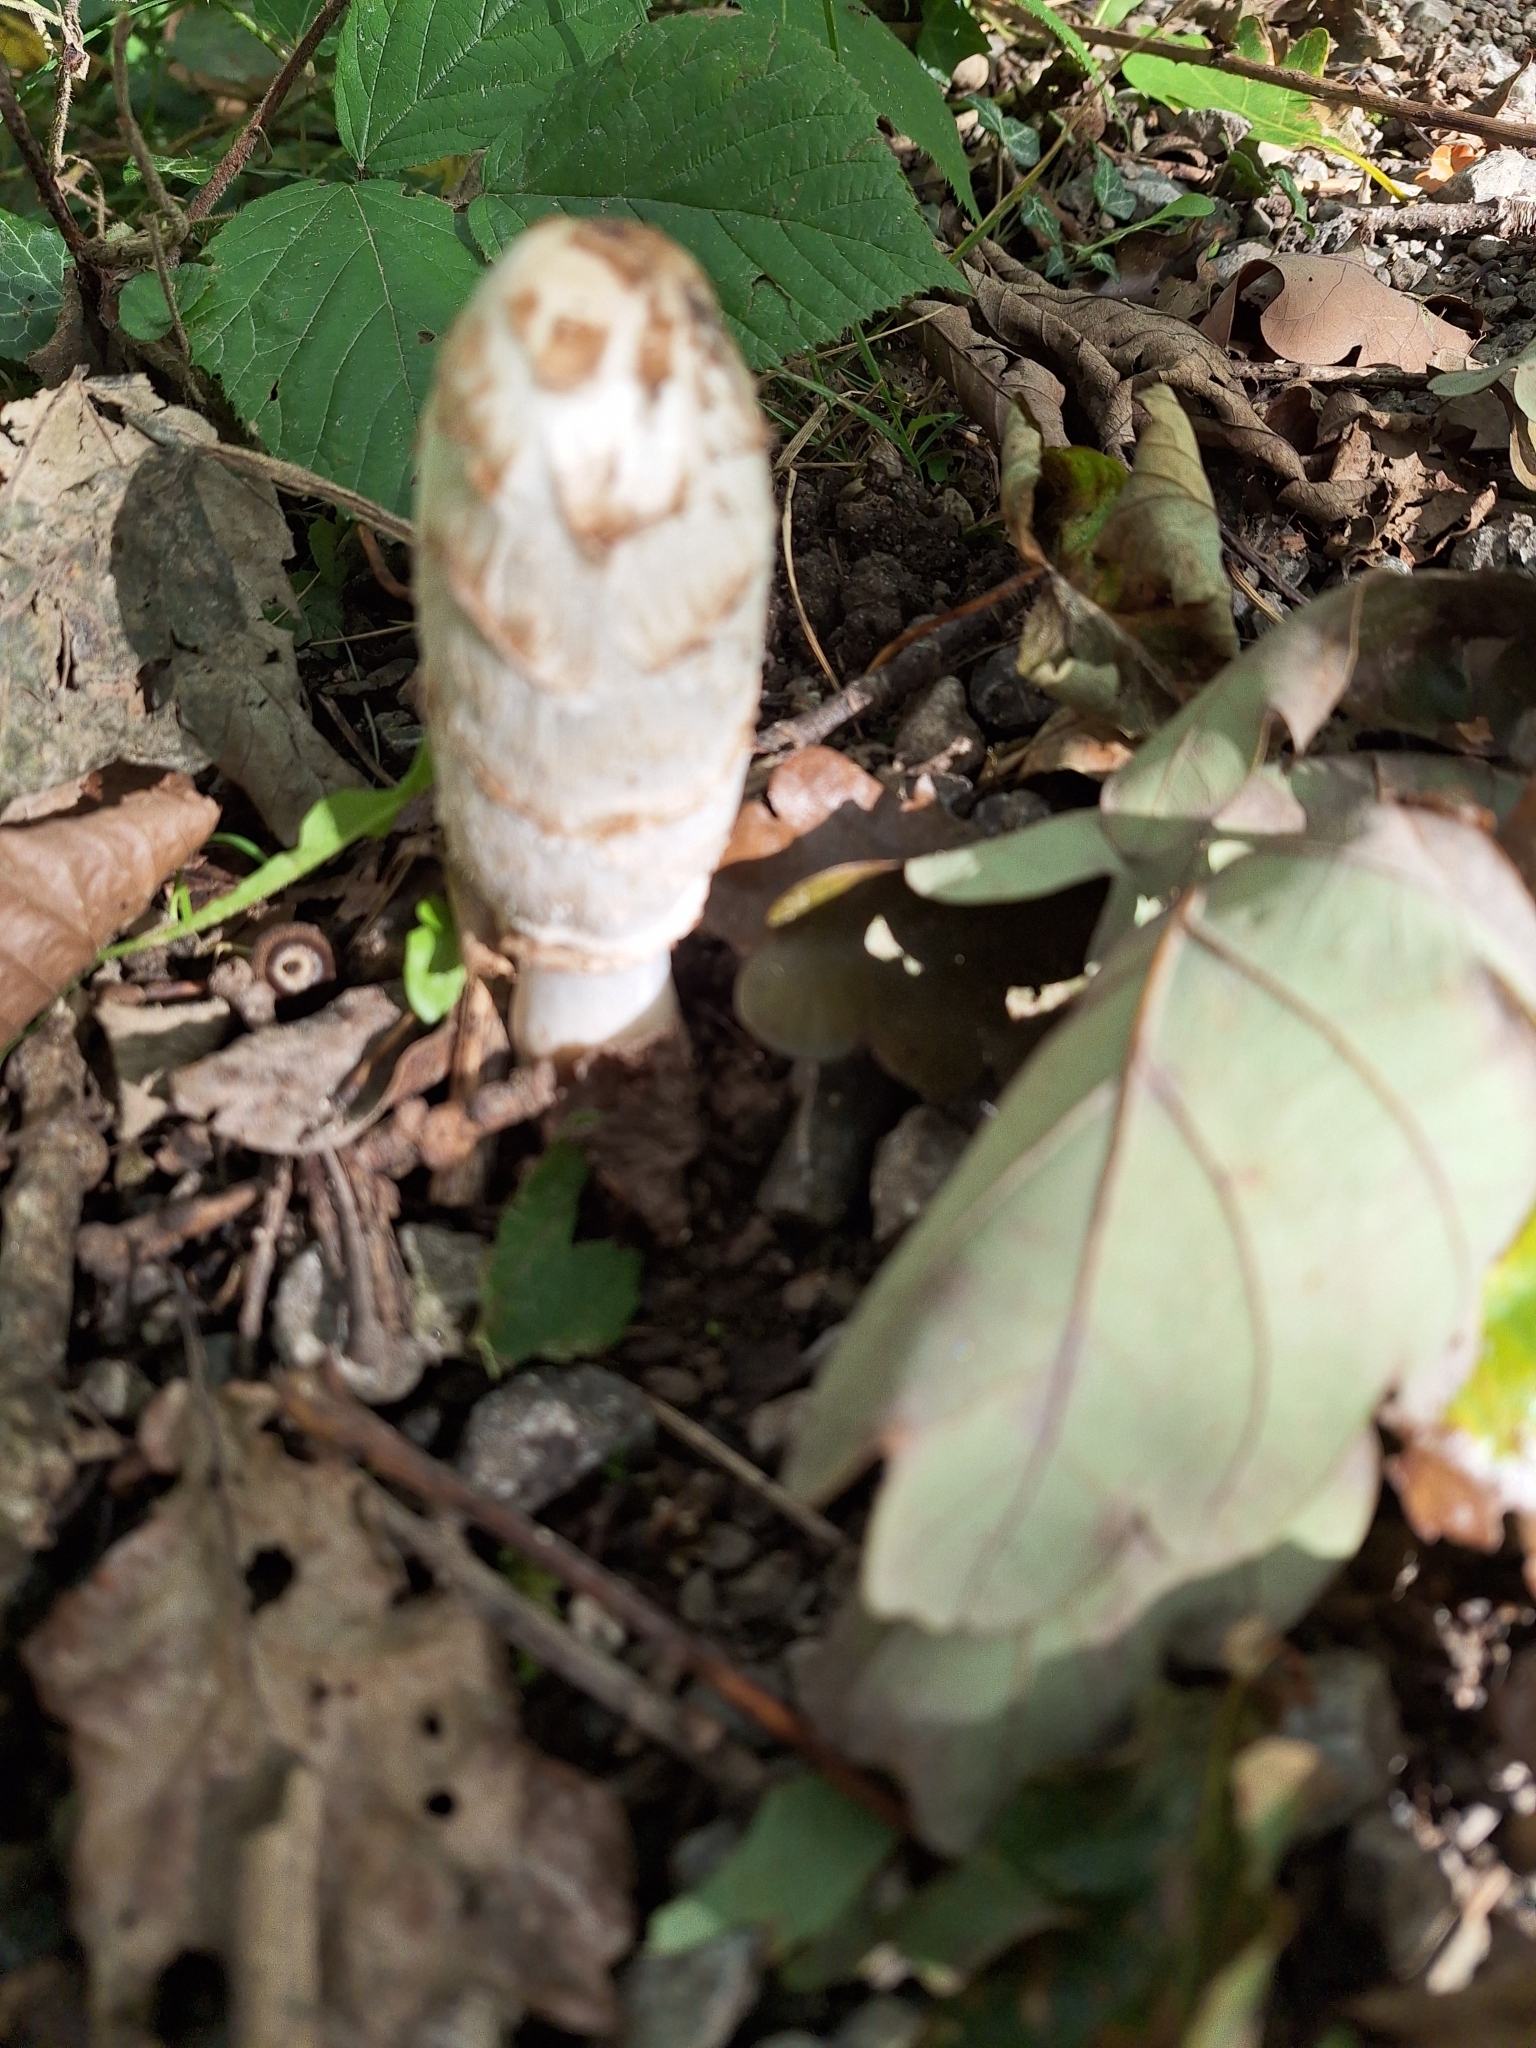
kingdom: Fungi
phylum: Basidiomycota
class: Agaricomycetes
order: Agaricales
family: Agaricaceae
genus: Coprinus
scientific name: Coprinus comatus
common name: Lawyer's wig
